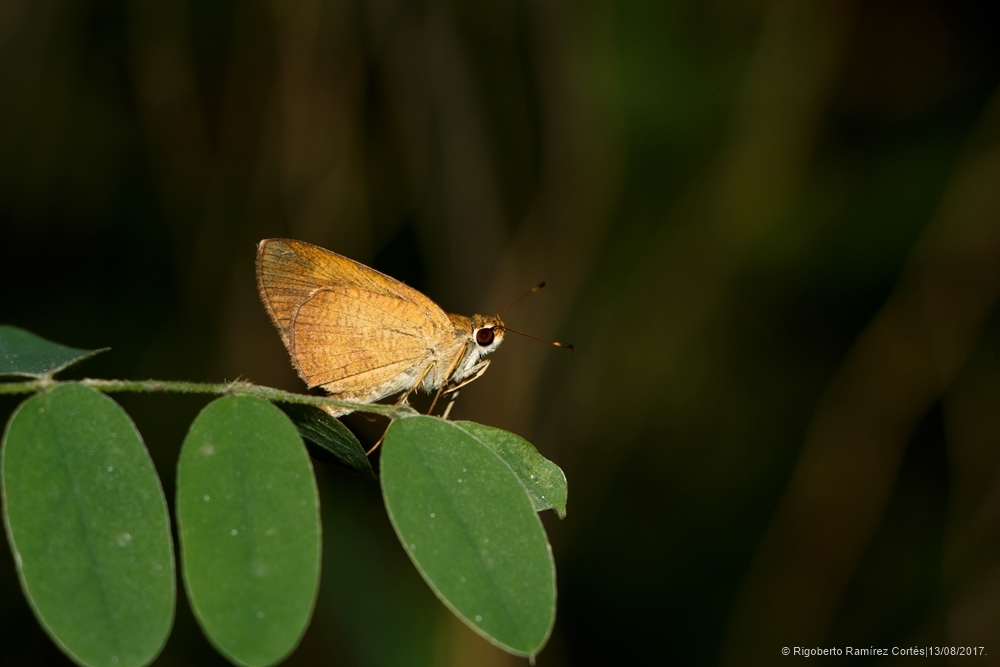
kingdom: Animalia
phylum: Arthropoda
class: Insecta
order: Lepidoptera
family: Hesperiidae
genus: Synapte
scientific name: Synapte malitiosa
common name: Caribbean faceted-skipper
